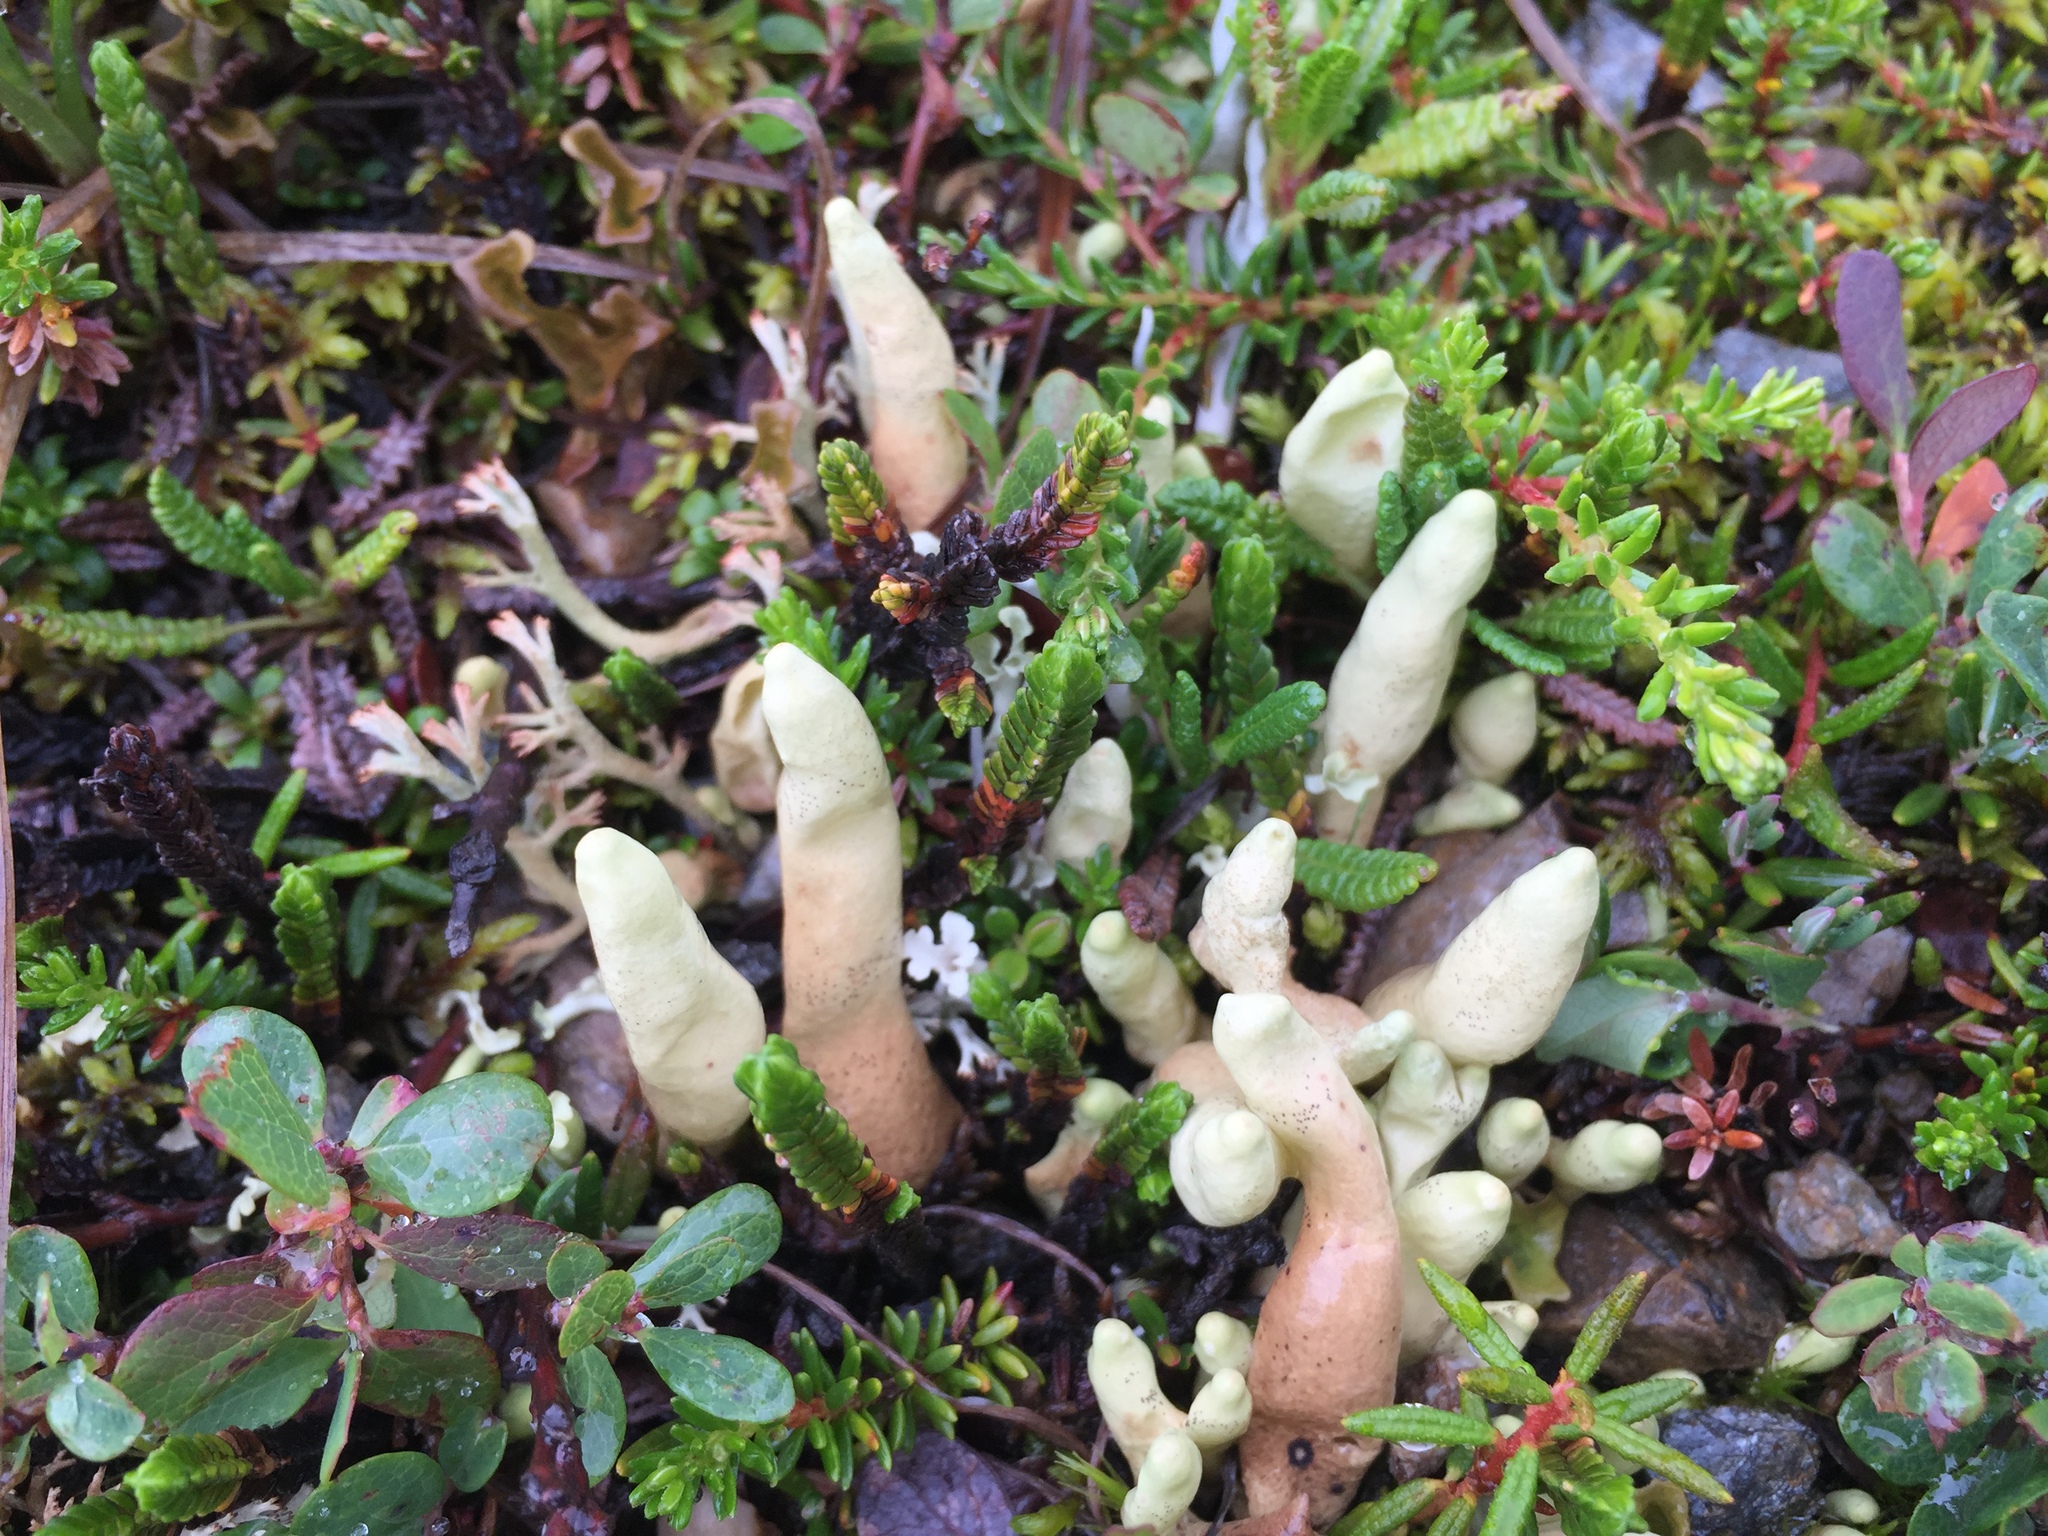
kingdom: Fungi
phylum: Ascomycota
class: Lecanoromycetes
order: Lecanorales
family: Parmeliaceae
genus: Dactylina
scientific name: Dactylina arctica
